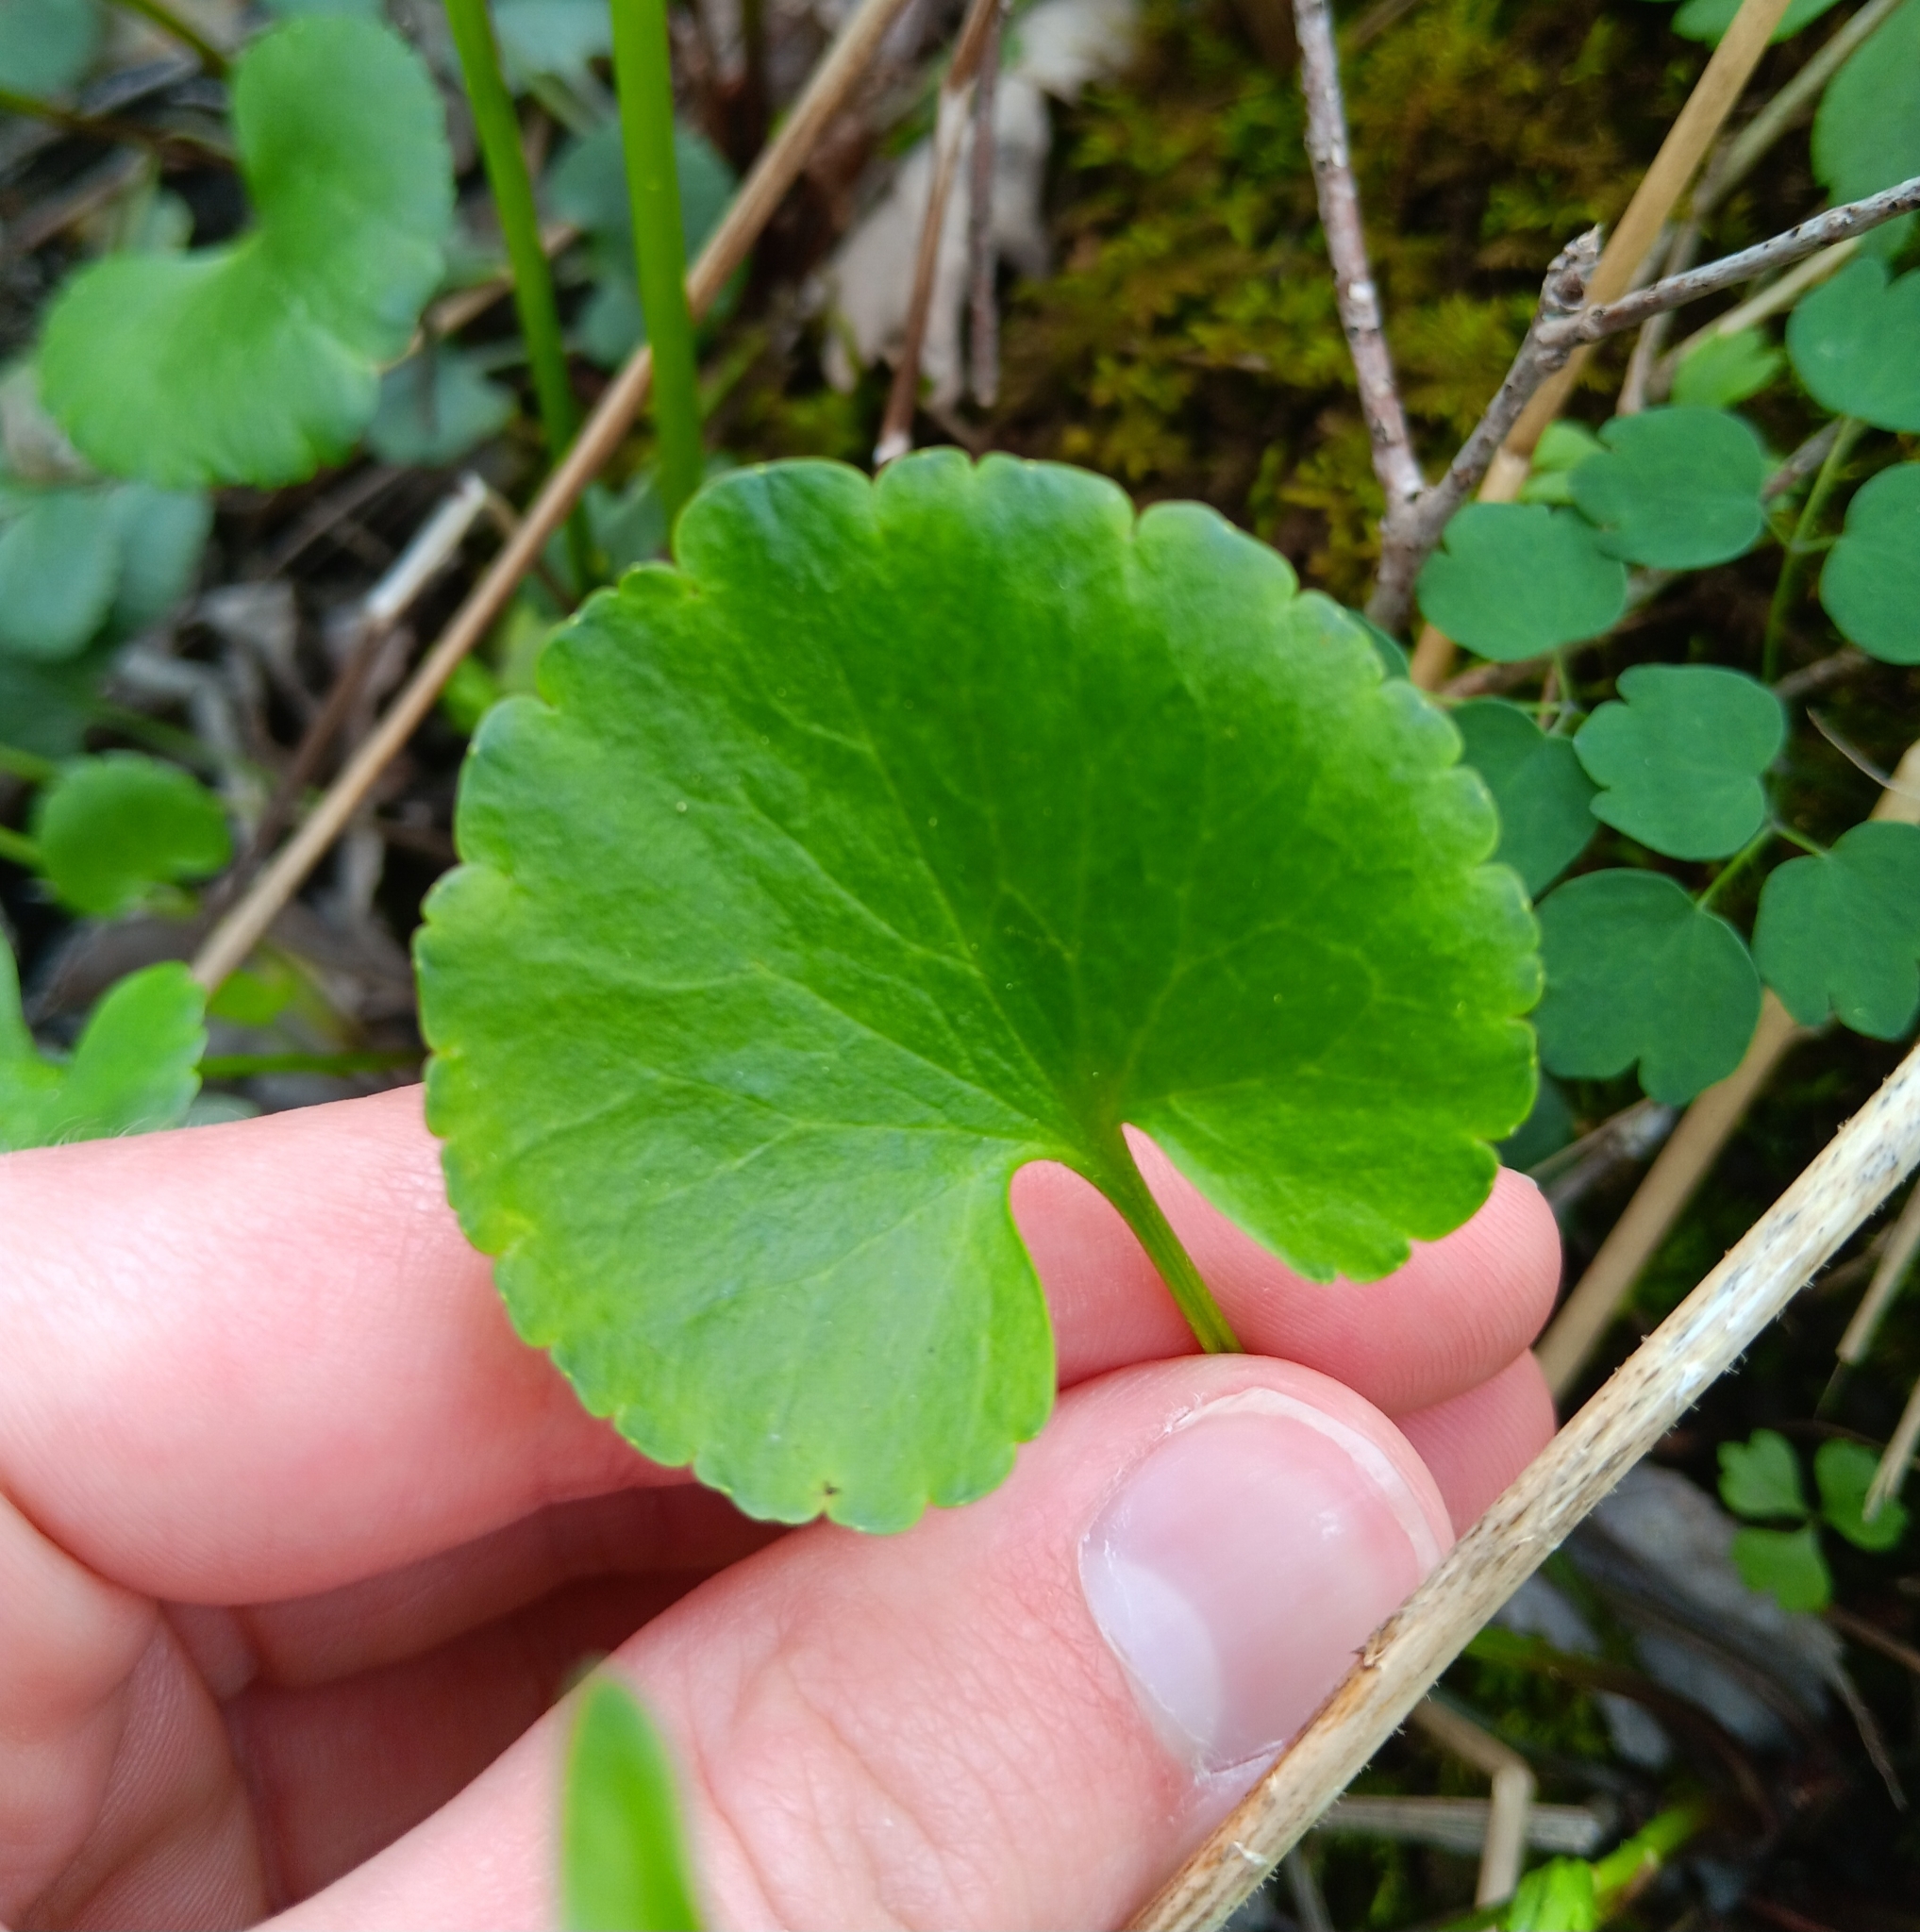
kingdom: Plantae
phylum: Tracheophyta
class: Magnoliopsida
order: Ranunculales
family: Ranunculaceae
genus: Ranunculus
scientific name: Ranunculus abortivus
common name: Early wood buttercup
